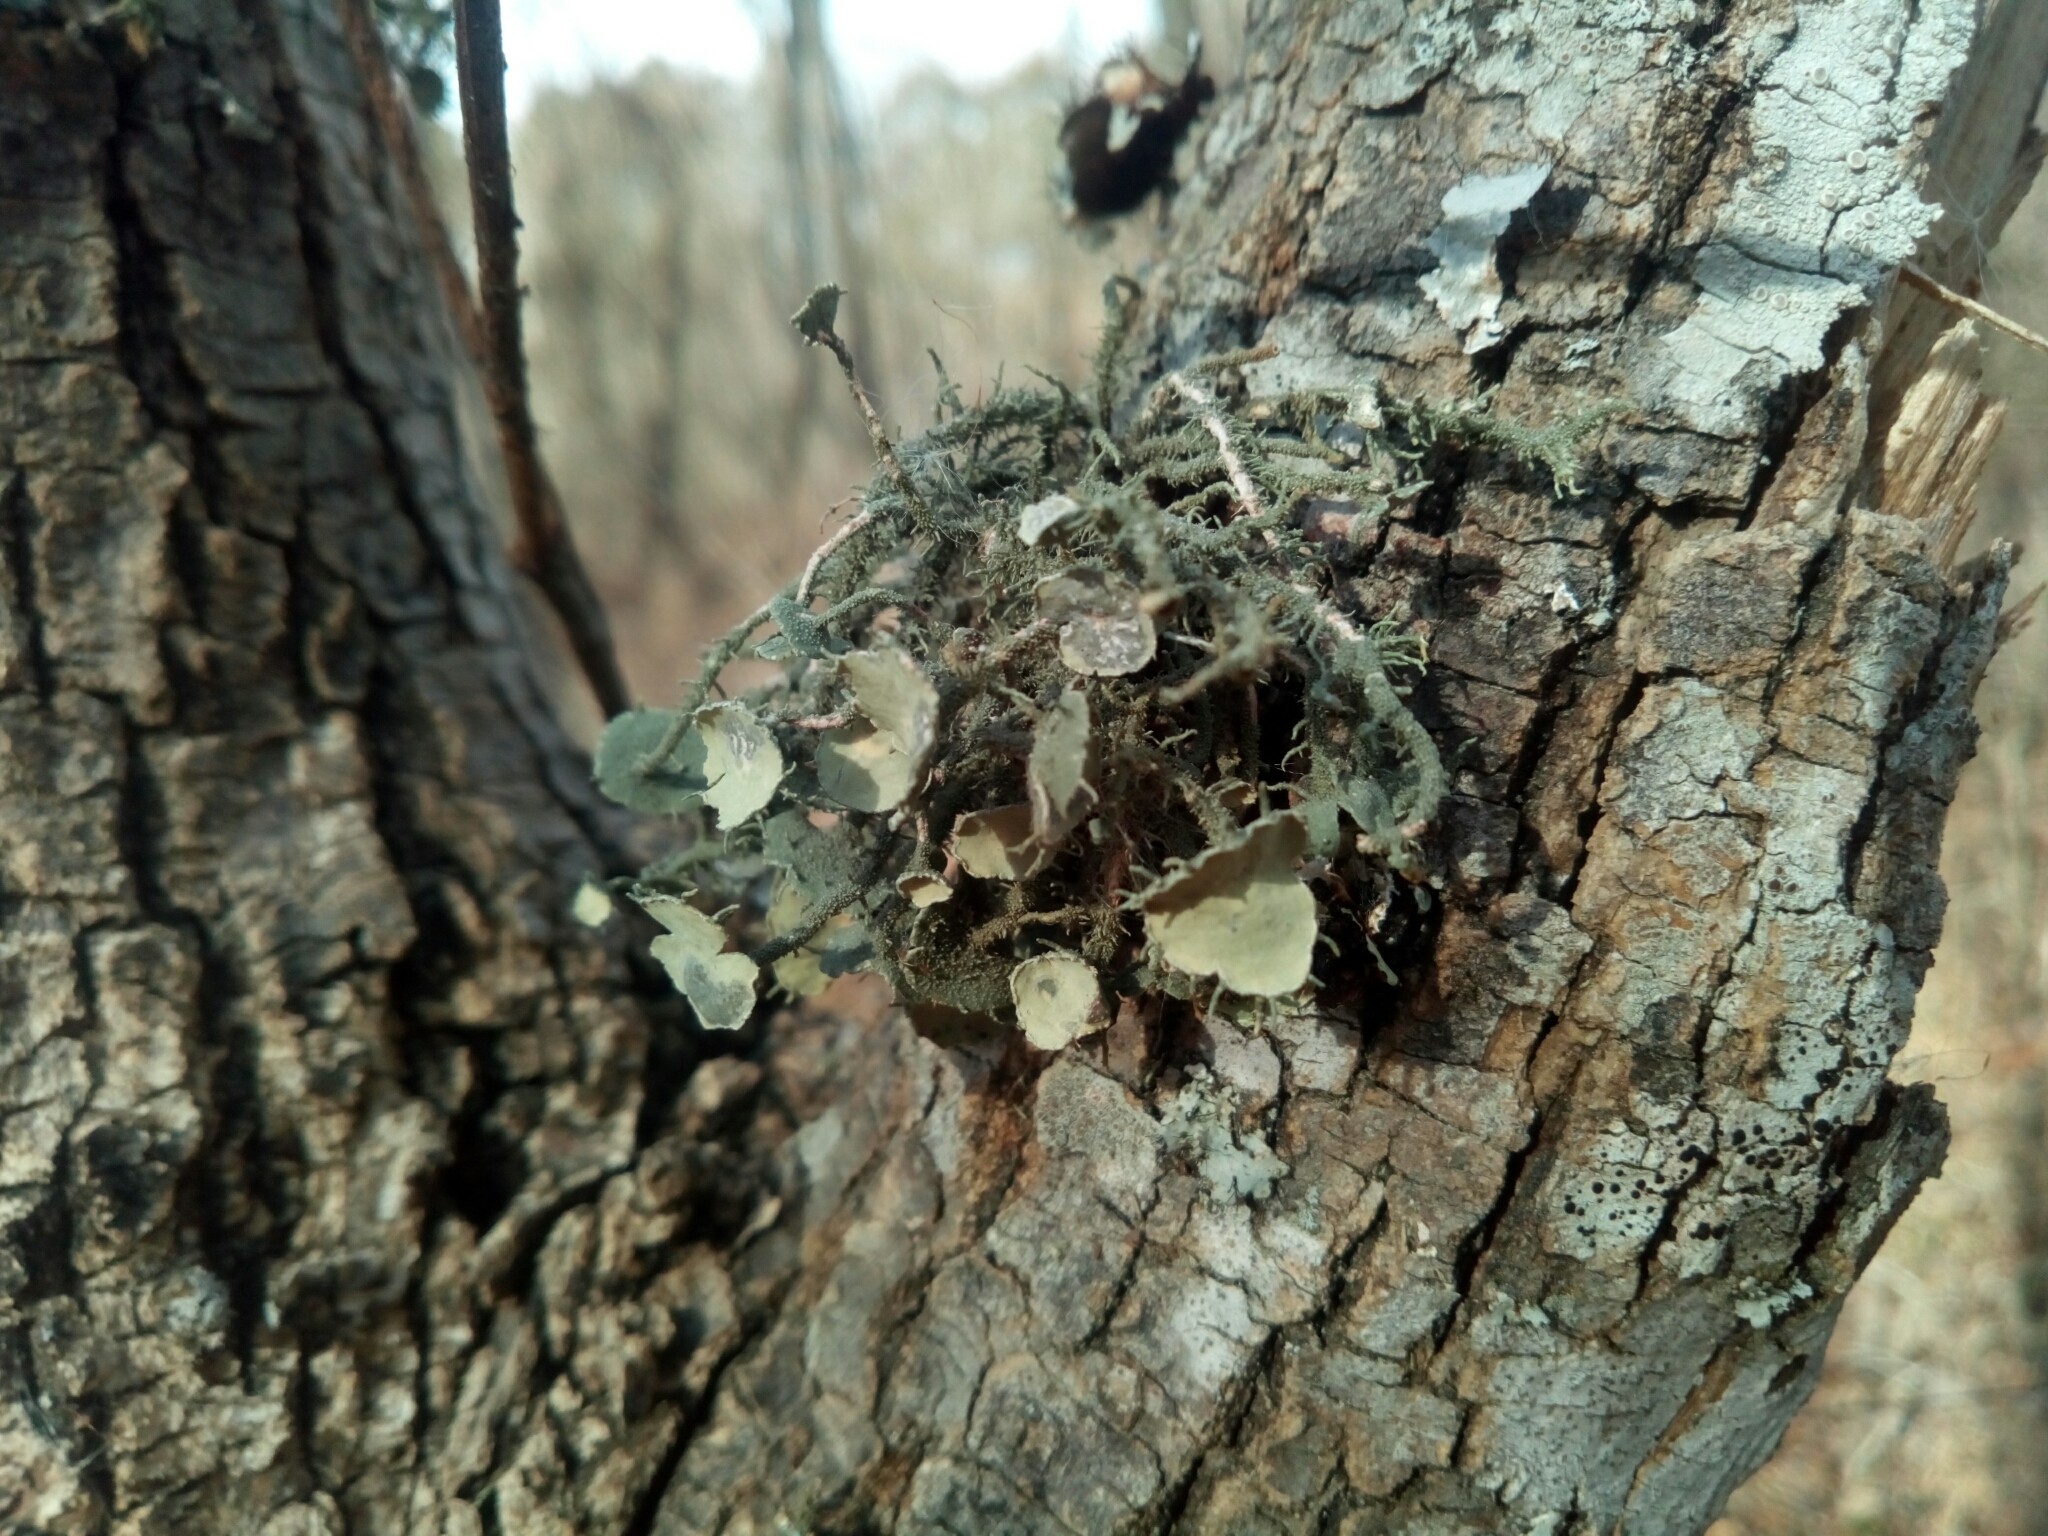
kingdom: Fungi
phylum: Ascomycota
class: Lecanoromycetes
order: Lecanorales
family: Parmeliaceae
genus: Usnea
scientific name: Usnea strigosa
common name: Bushy beard lichen
